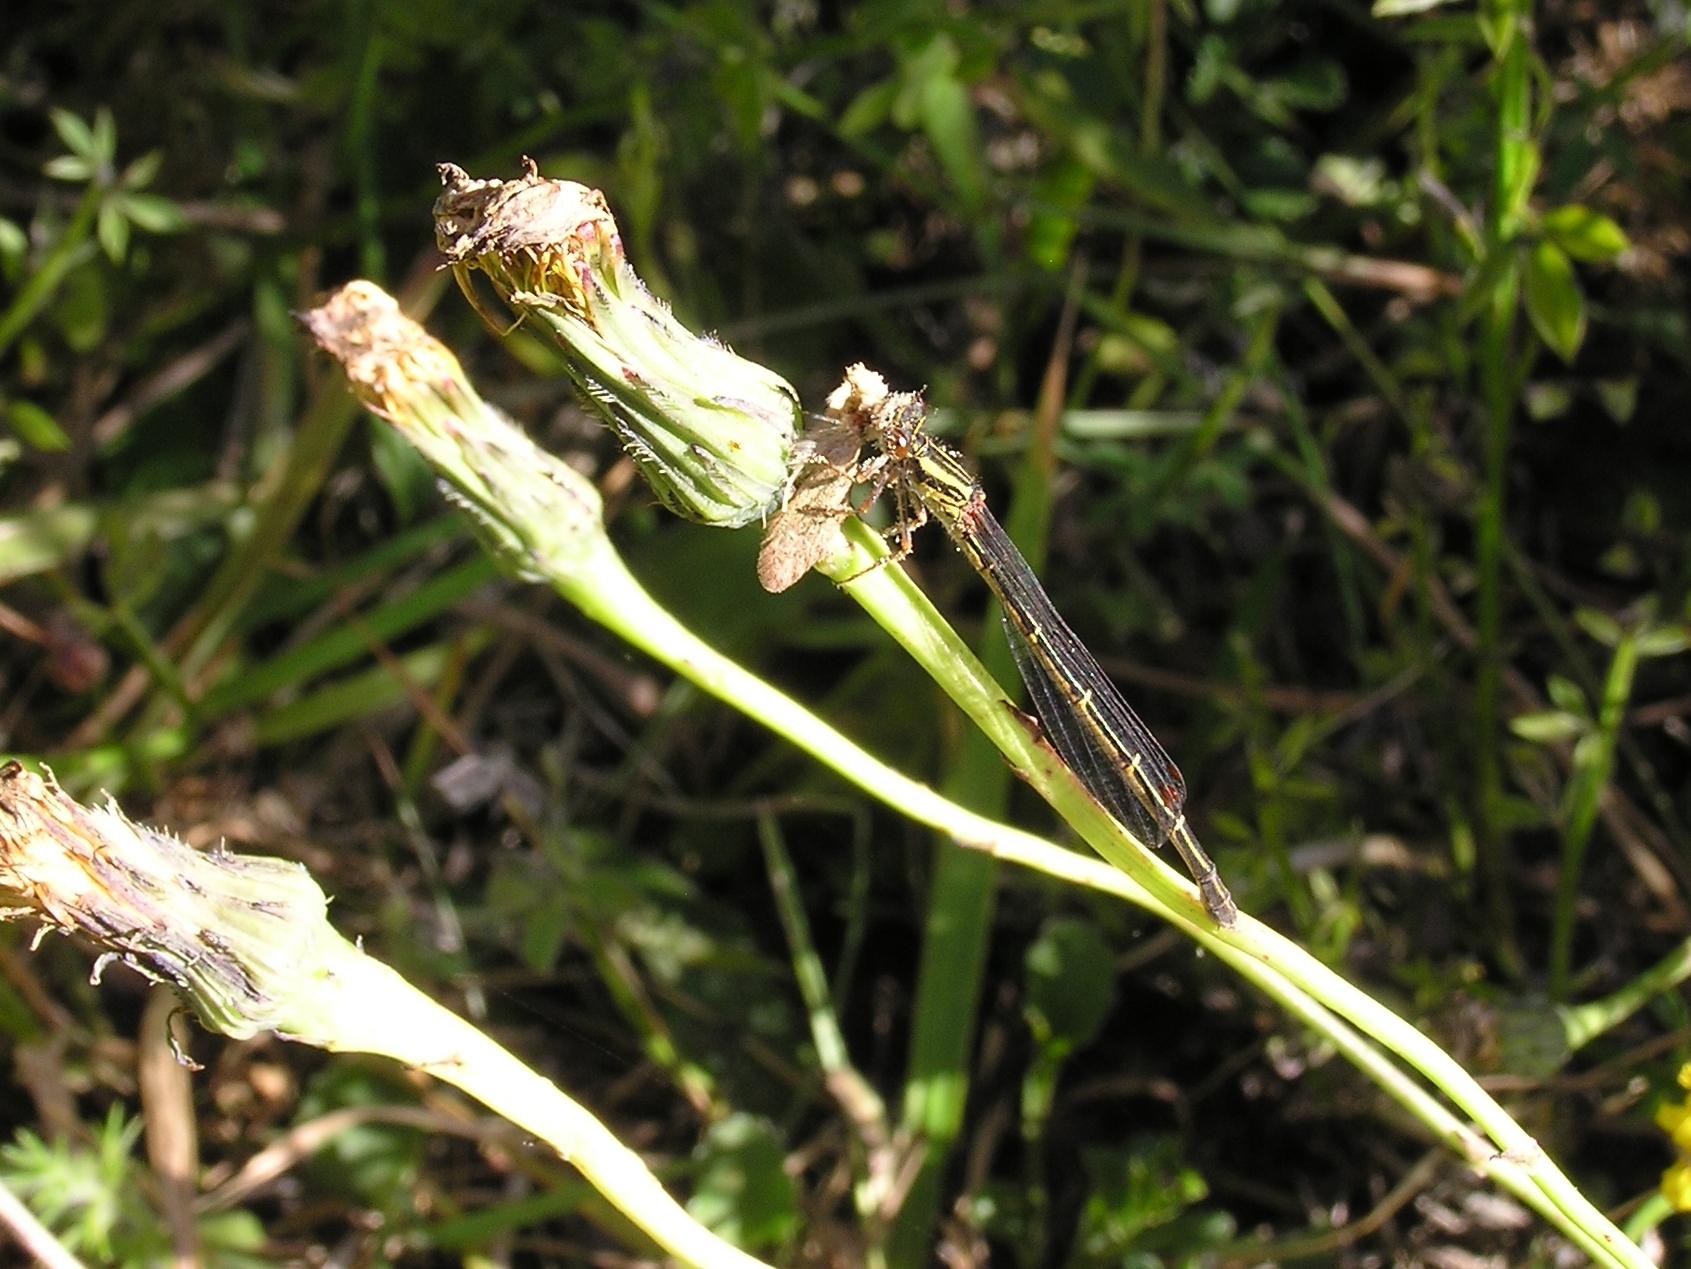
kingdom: Animalia
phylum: Arthropoda
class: Insecta
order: Odonata
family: Coenagrionidae
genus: Xanthocnemis
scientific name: Xanthocnemis zealandica
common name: Common redcoat damselfly
